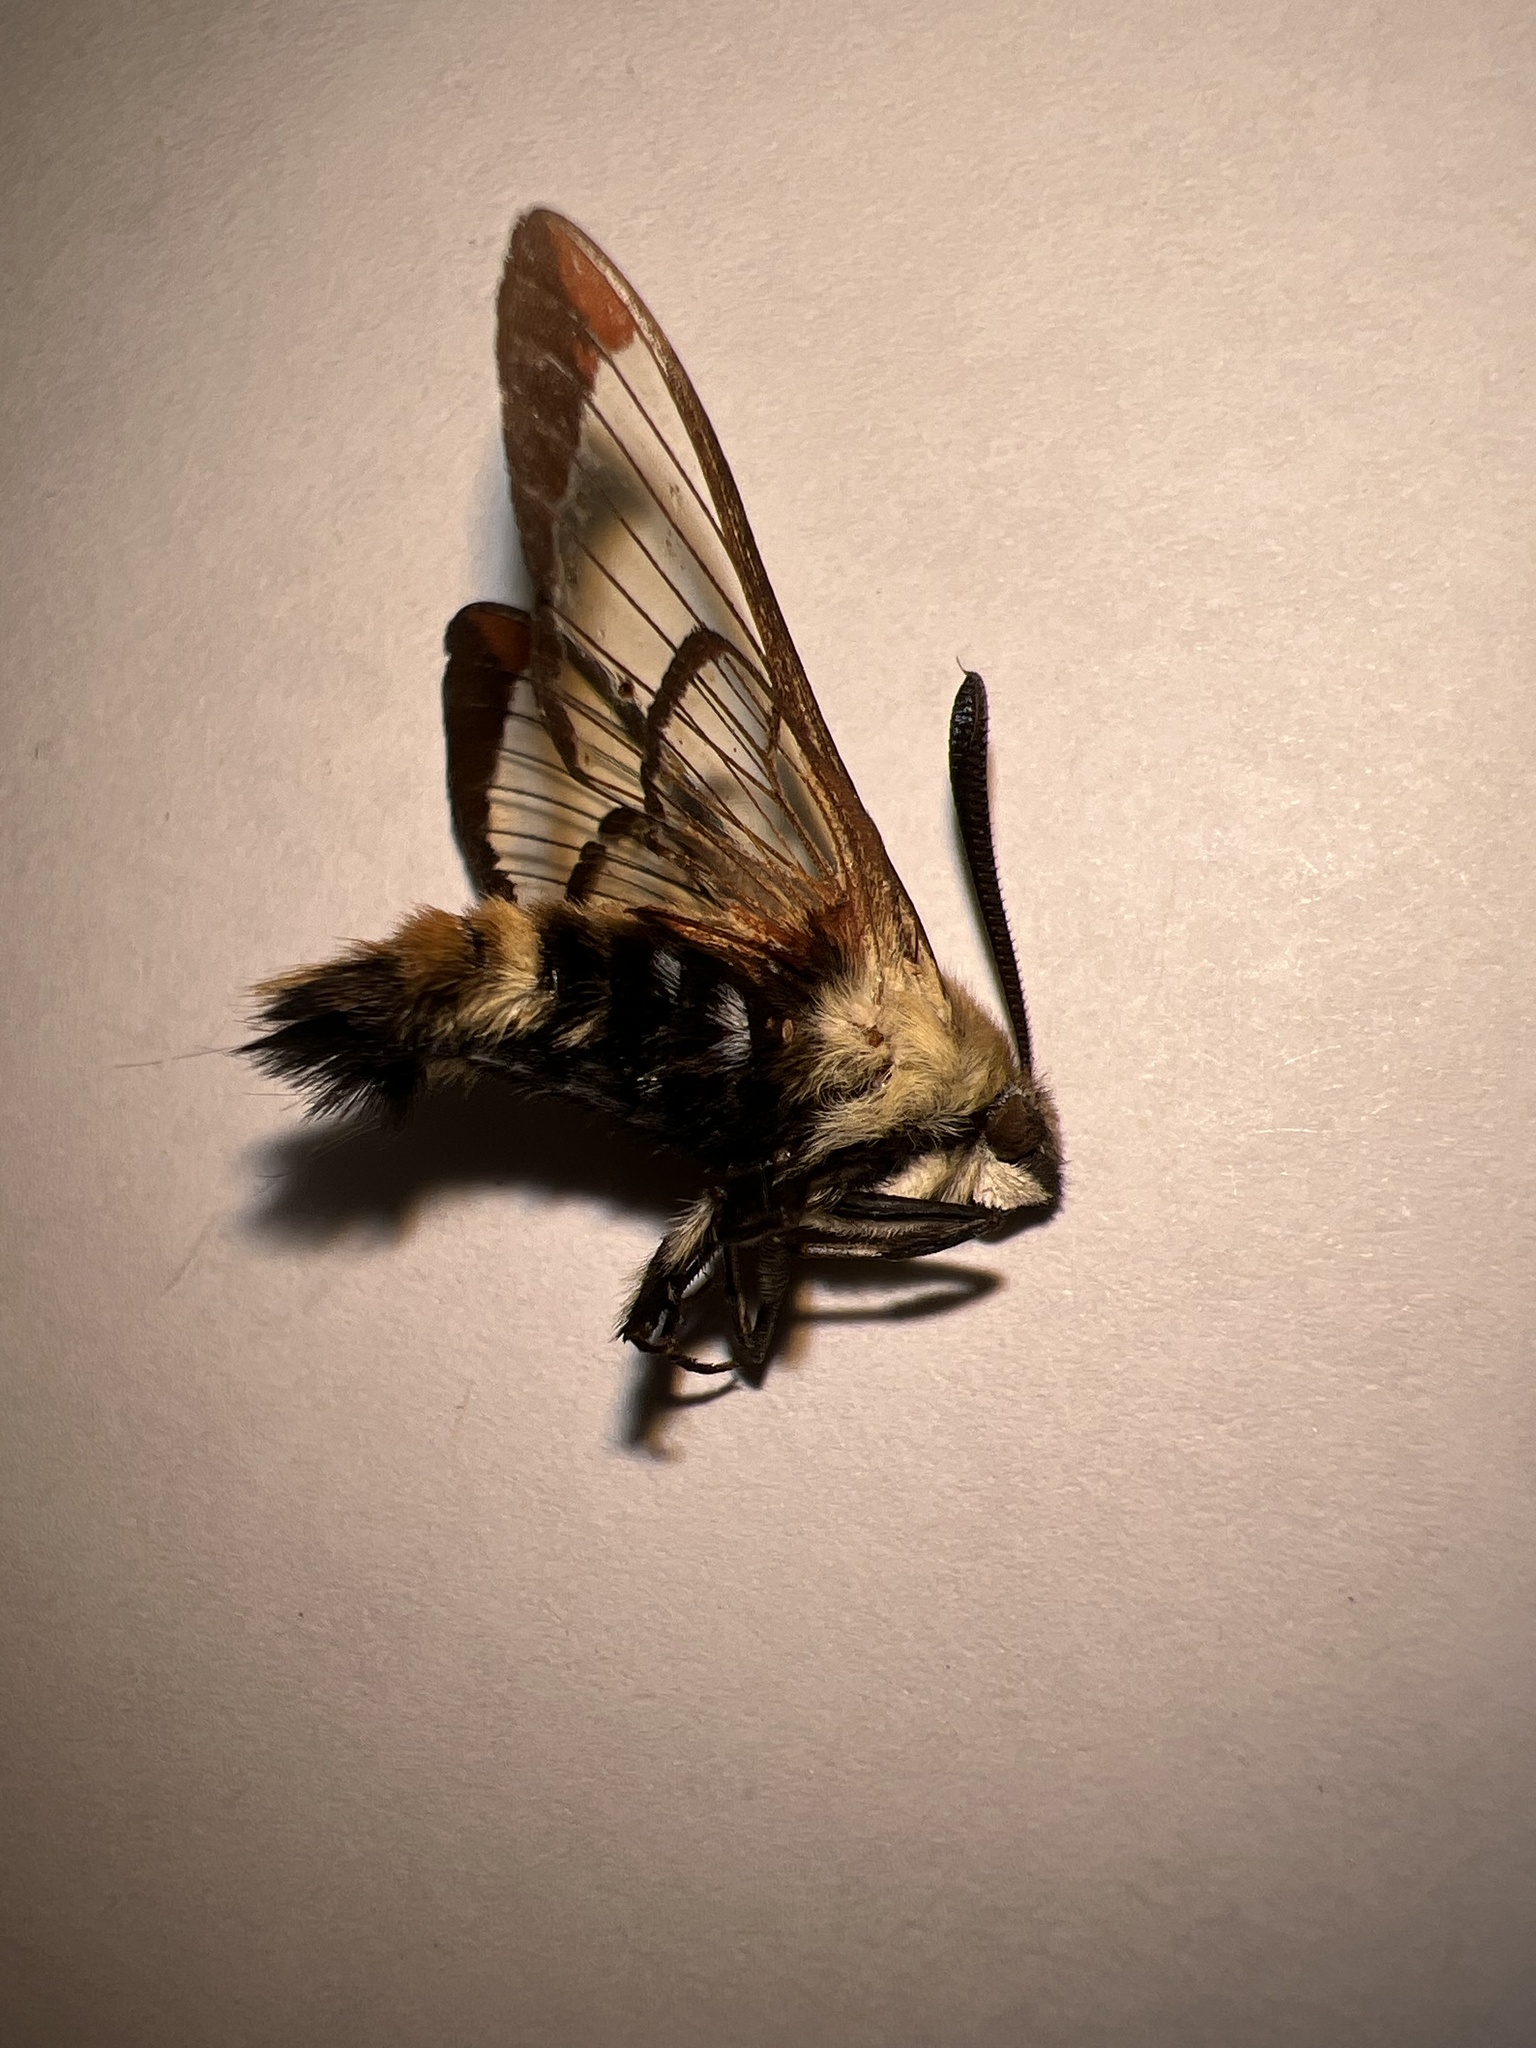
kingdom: Animalia
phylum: Arthropoda
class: Insecta
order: Lepidoptera
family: Sphingidae
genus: Hemaris
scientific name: Hemaris diffinis
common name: Bumblebee moth
